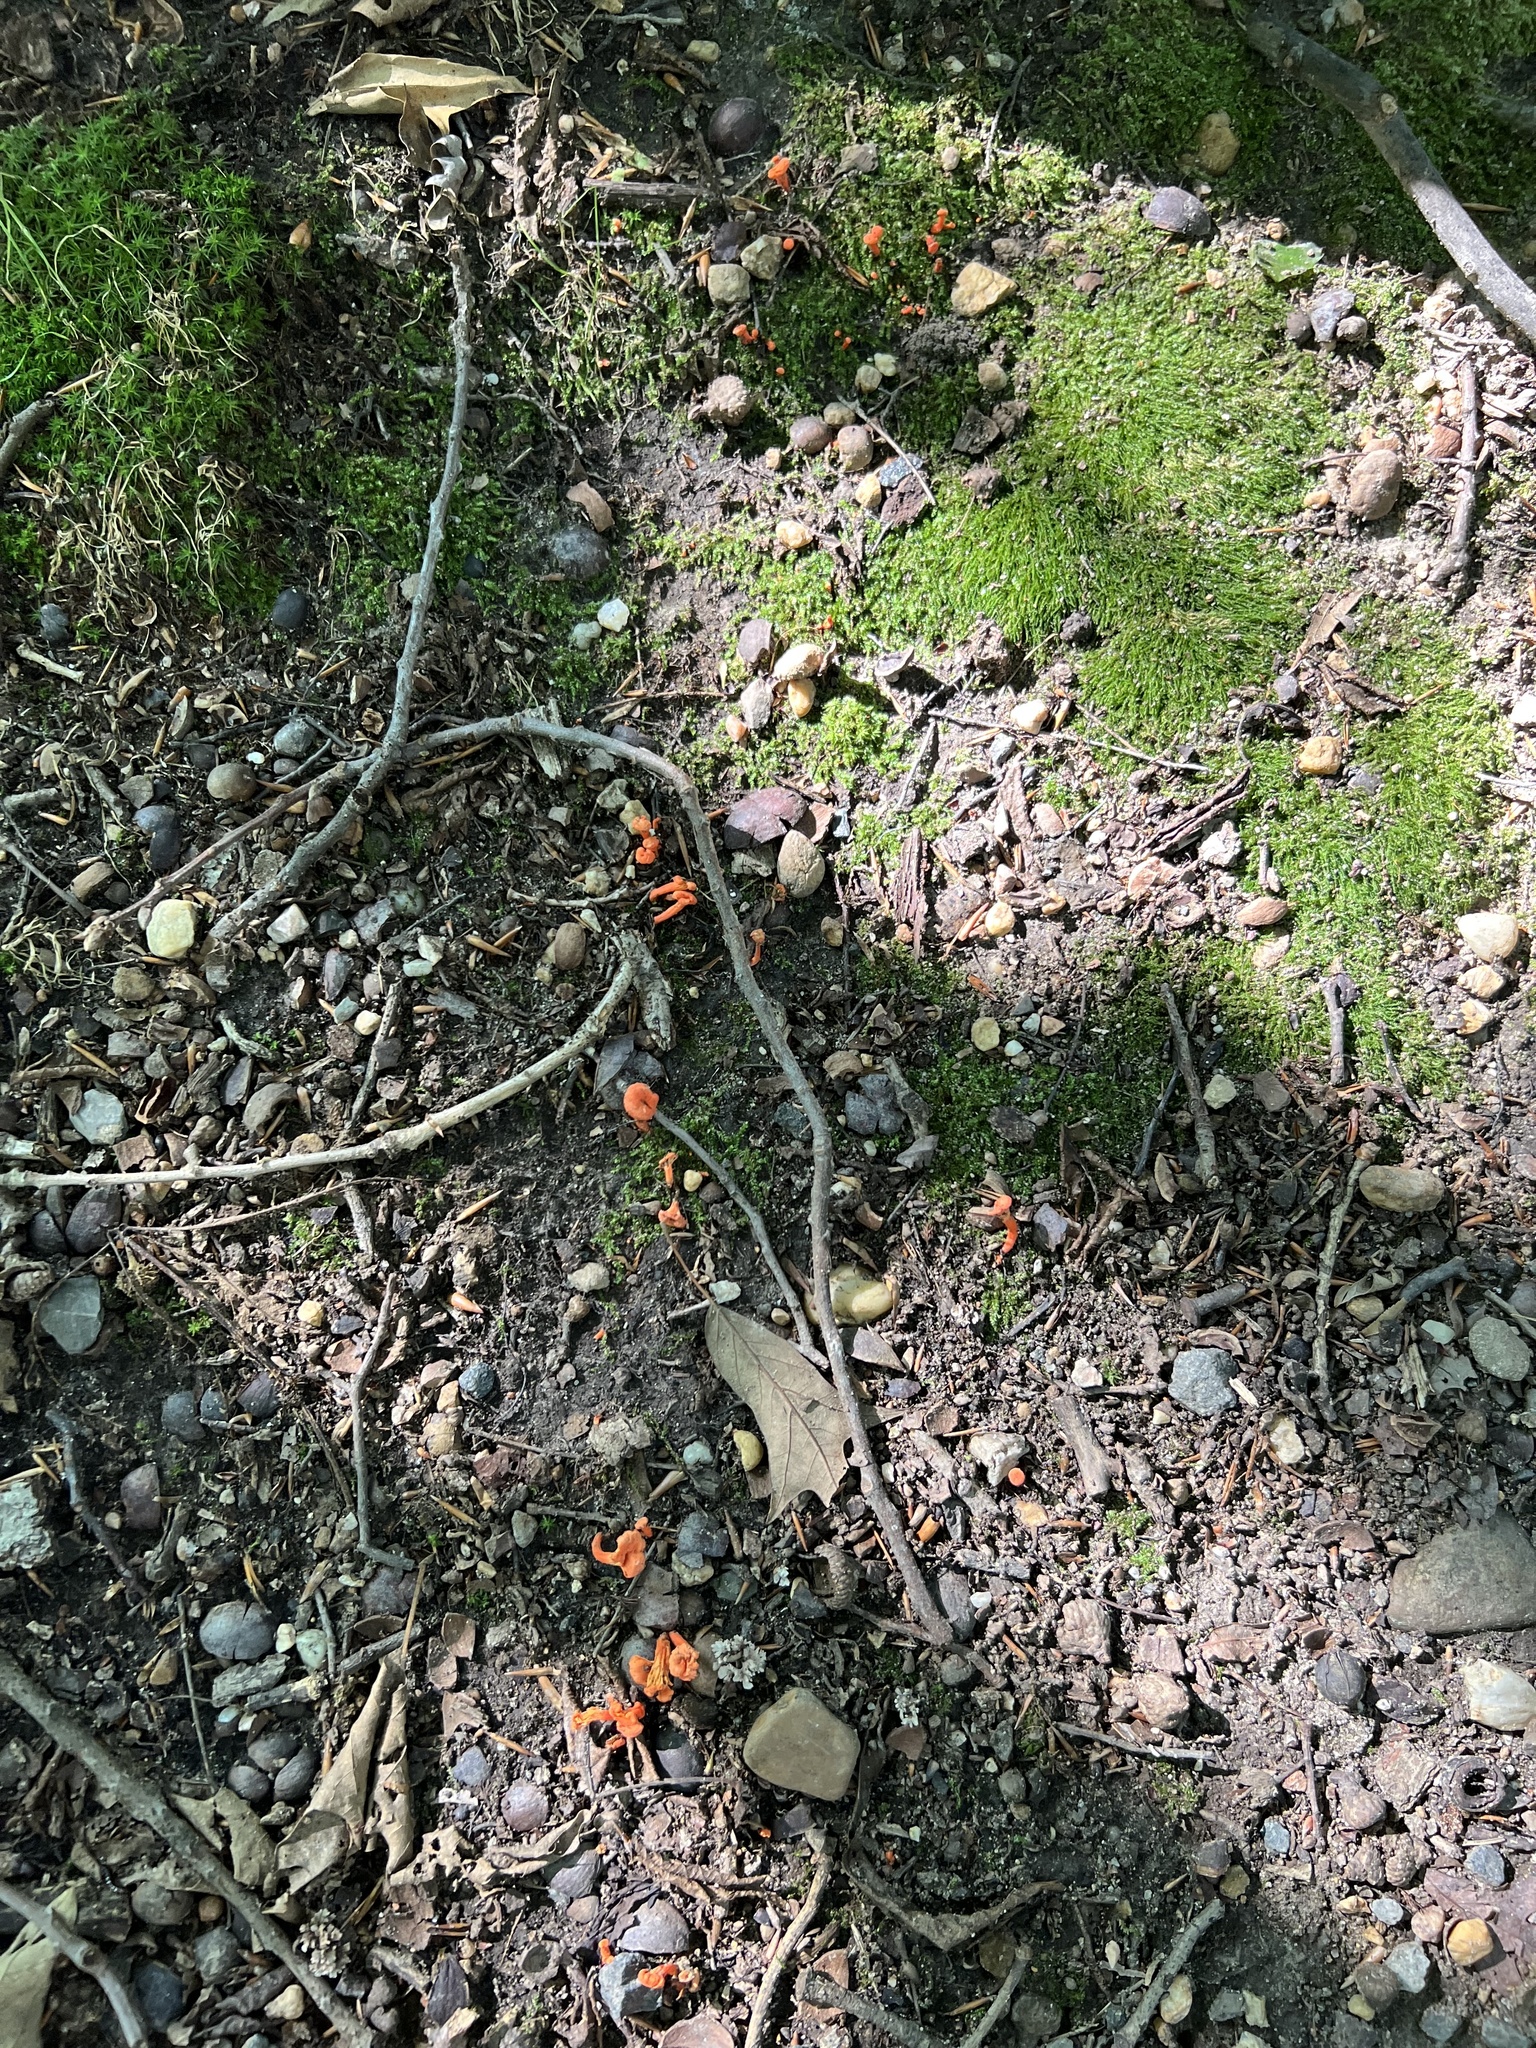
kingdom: Fungi
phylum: Basidiomycota
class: Agaricomycetes
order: Cantharellales
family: Hydnaceae
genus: Cantharellus
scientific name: Cantharellus cinnabarinus
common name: Cinnabar chanterelle
